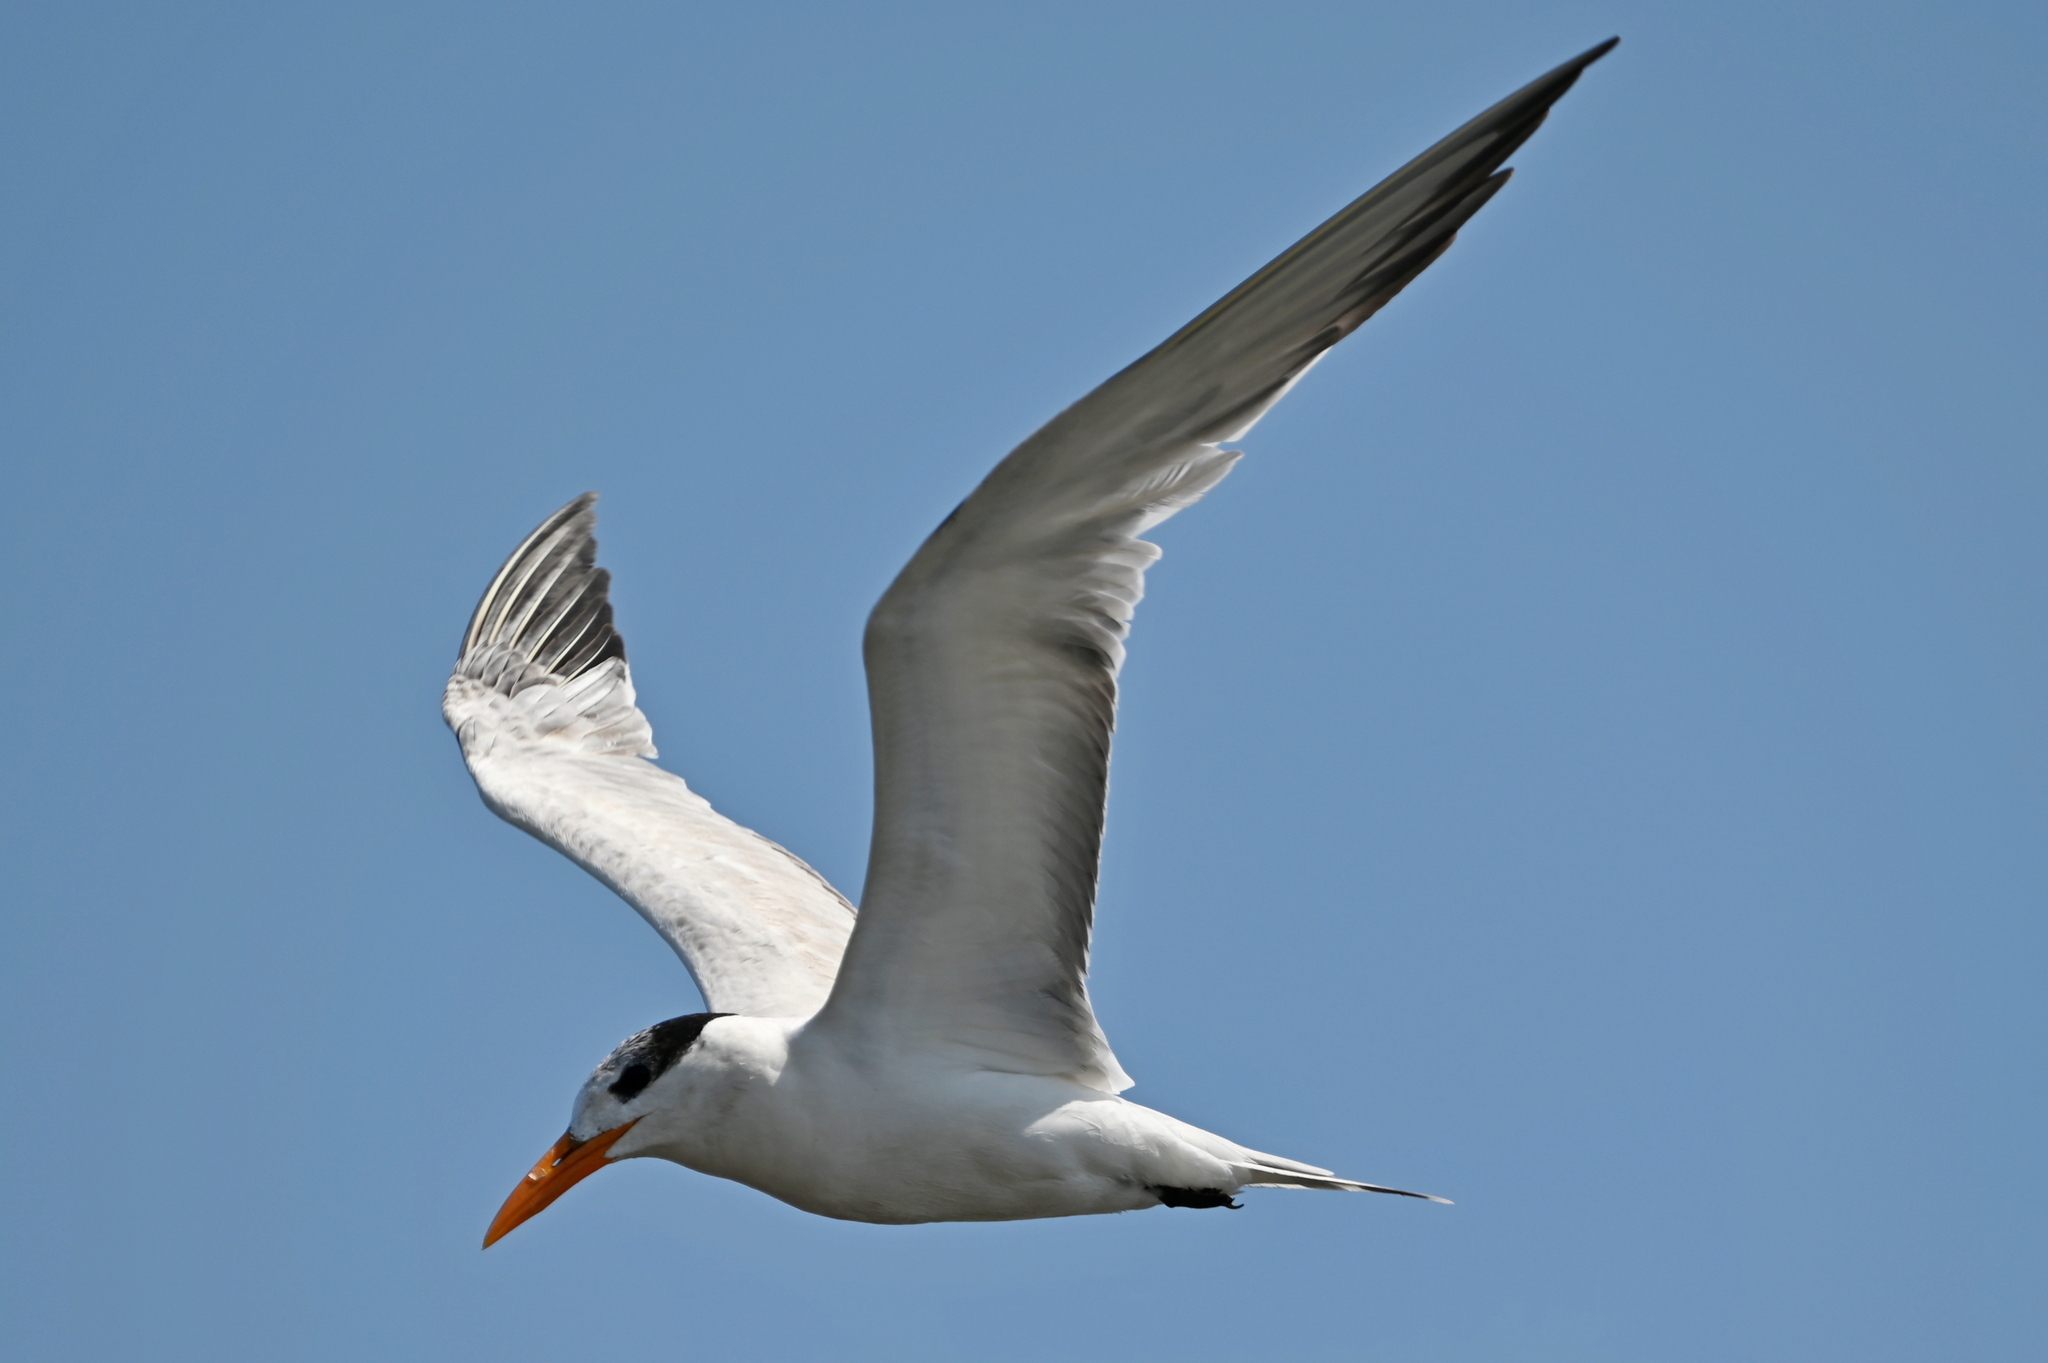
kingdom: Animalia
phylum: Chordata
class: Aves
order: Charadriiformes
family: Laridae
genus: Thalasseus
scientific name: Thalasseus maximus
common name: Royal tern
